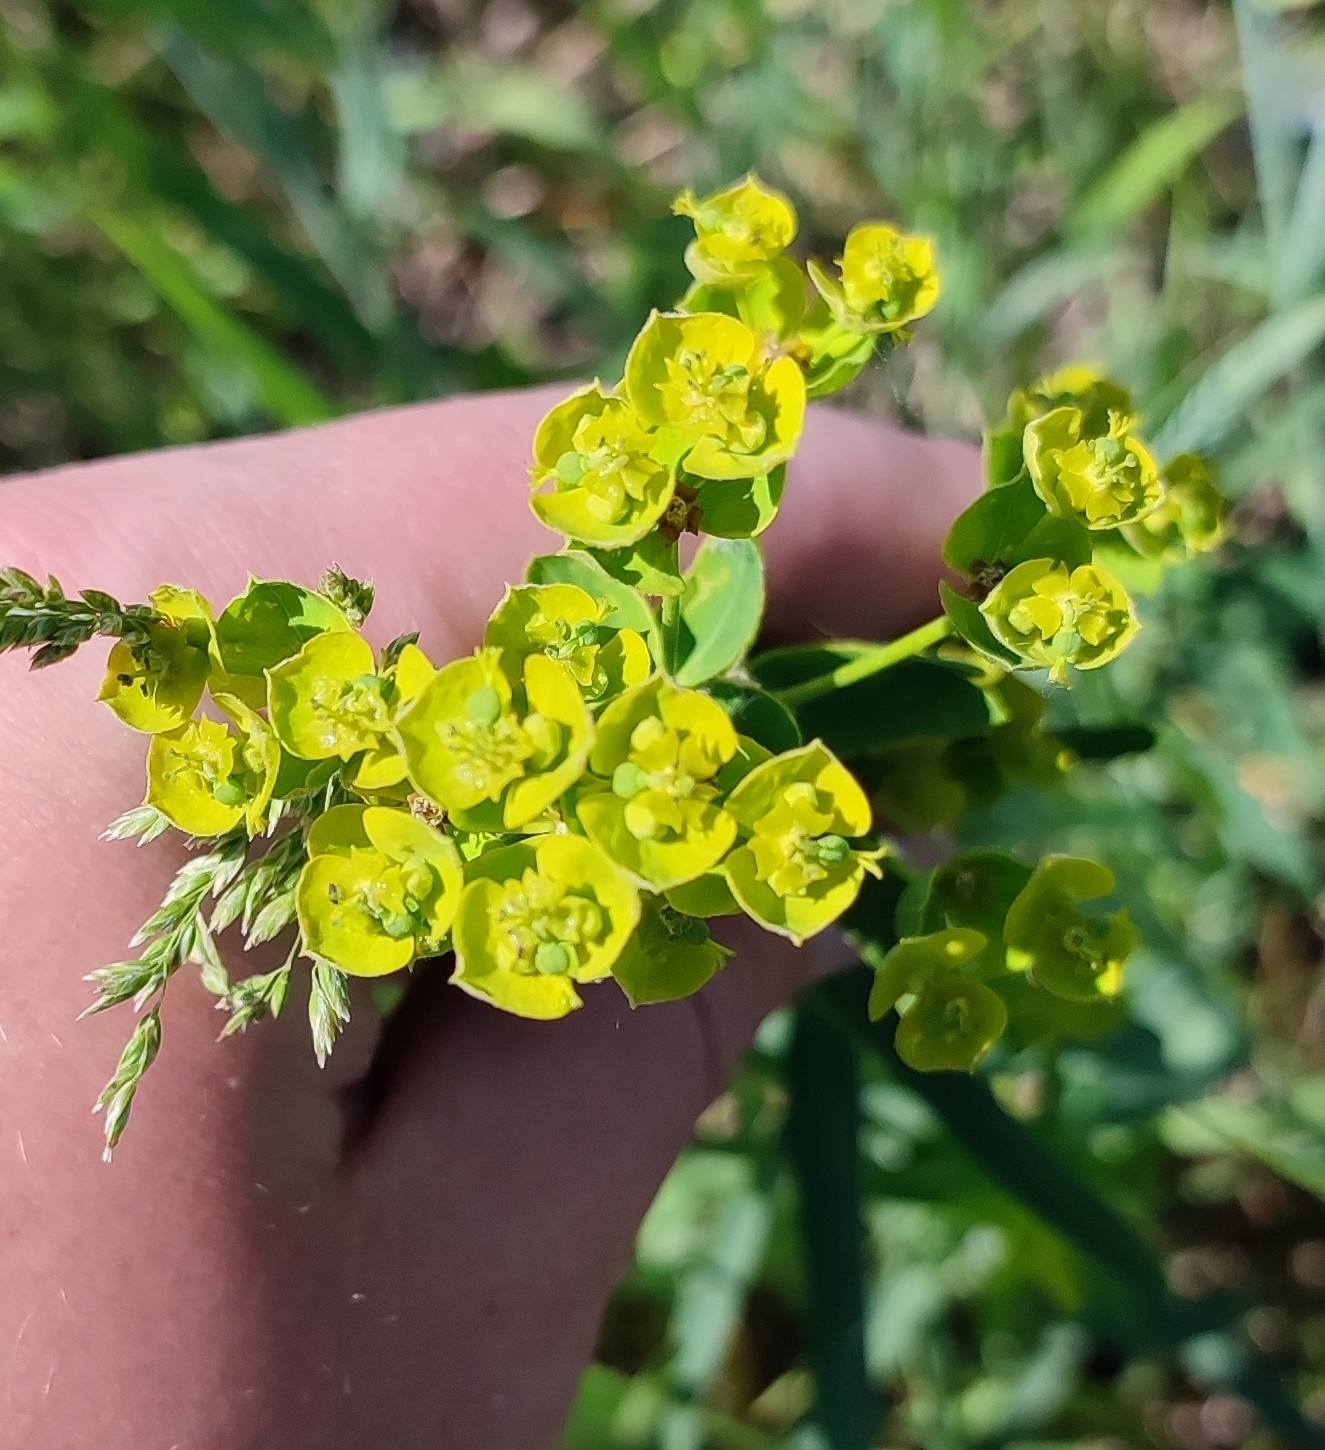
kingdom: Plantae
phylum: Tracheophyta
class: Magnoliopsida
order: Malpighiales
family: Euphorbiaceae
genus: Euphorbia
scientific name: Euphorbia virgata
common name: Leafy spurge
